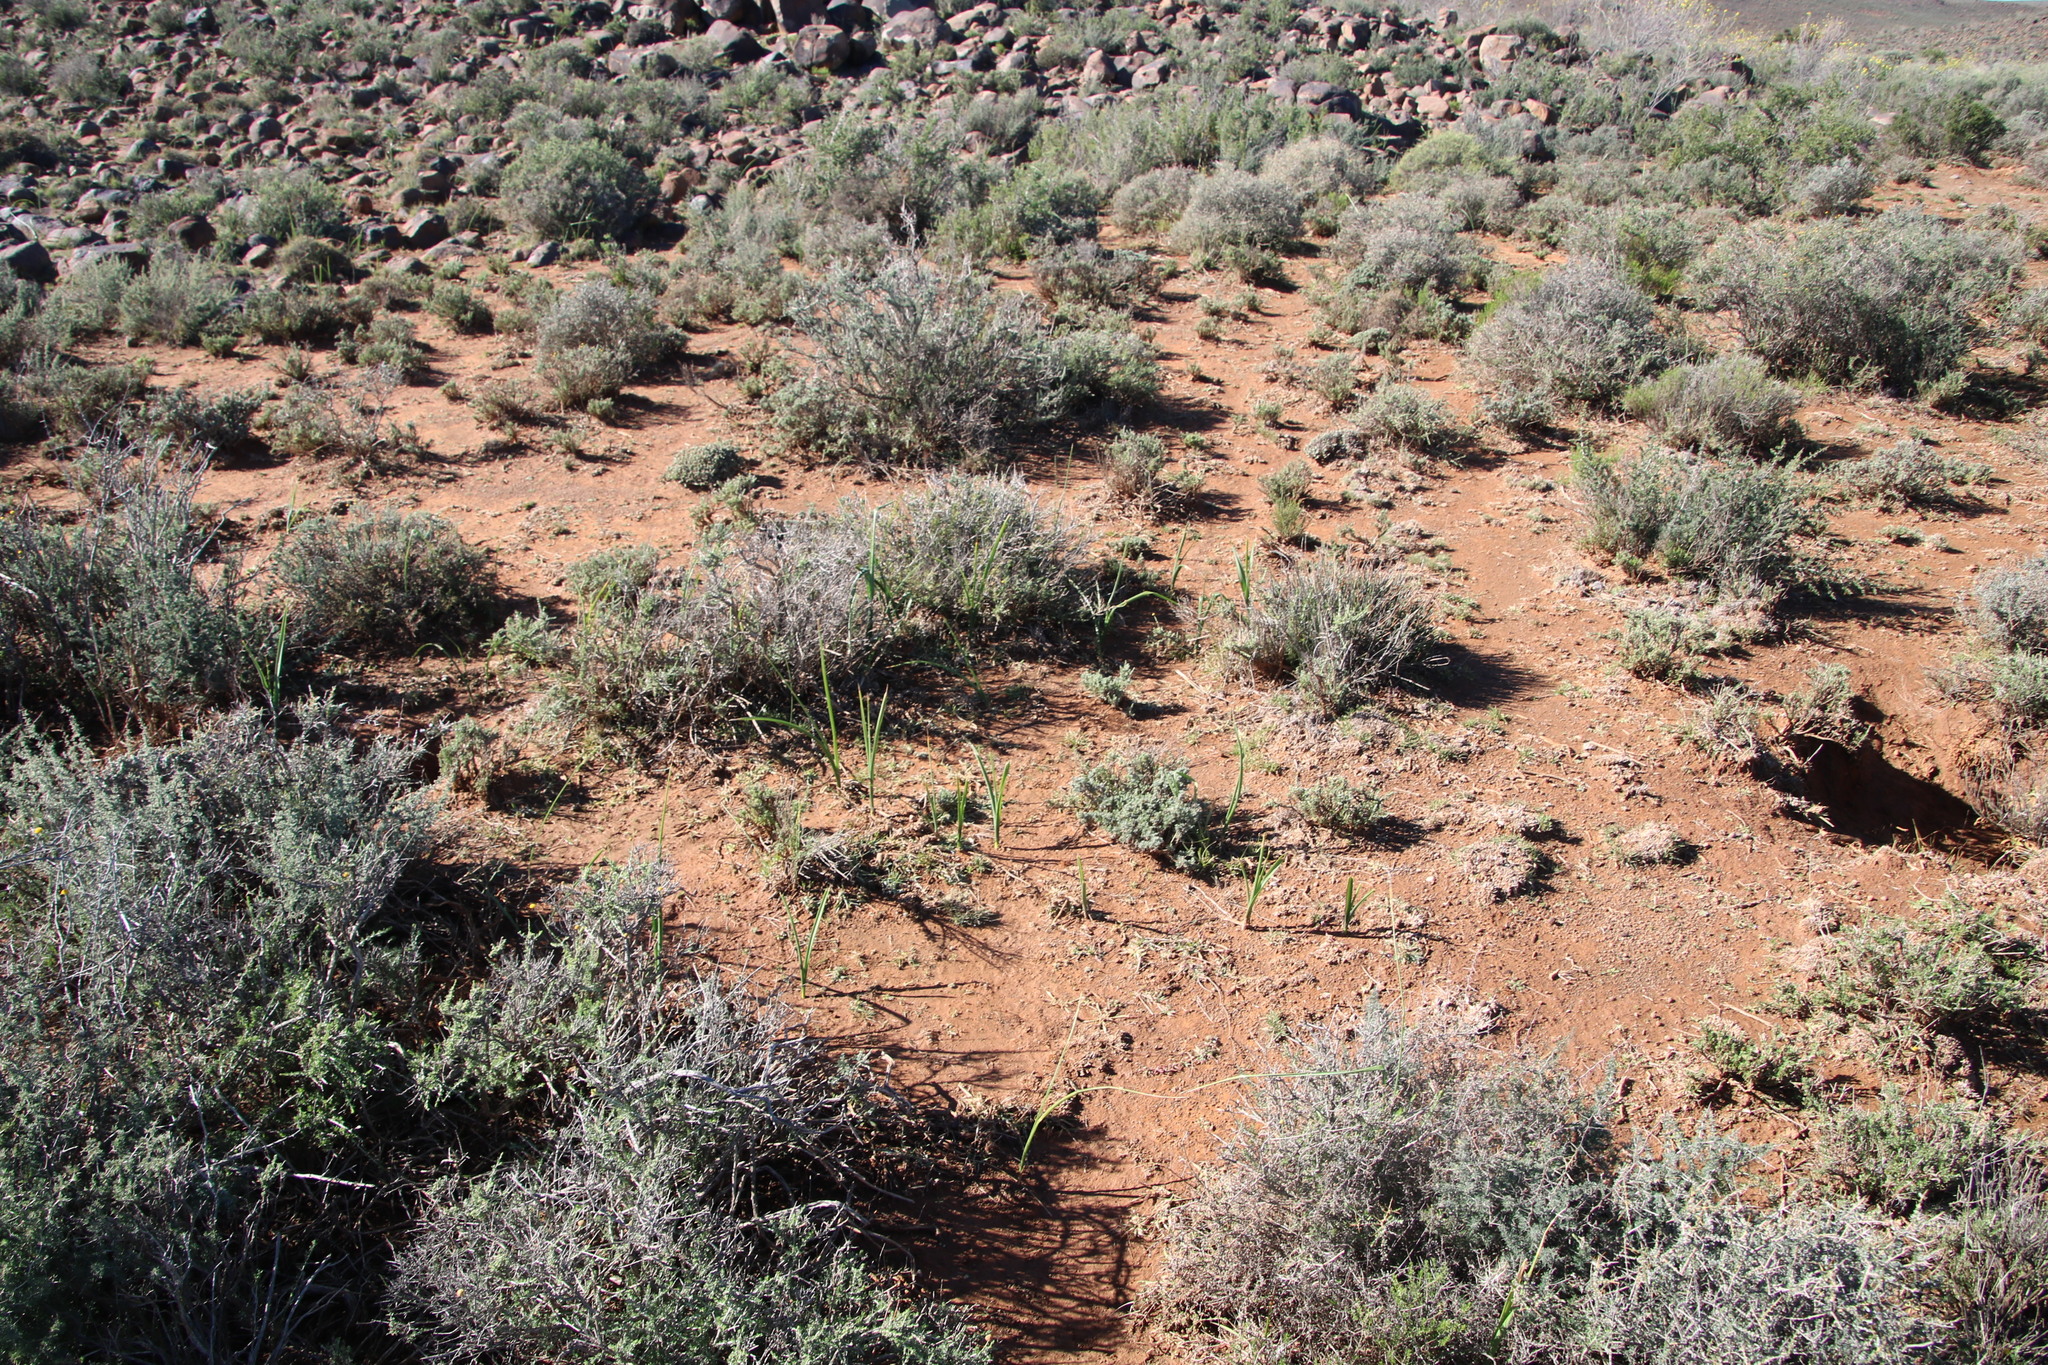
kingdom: Plantae
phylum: Tracheophyta
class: Liliopsida
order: Asparagales
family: Iridaceae
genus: Moraea
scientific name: Moraea polystachya
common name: Blue-tulip
